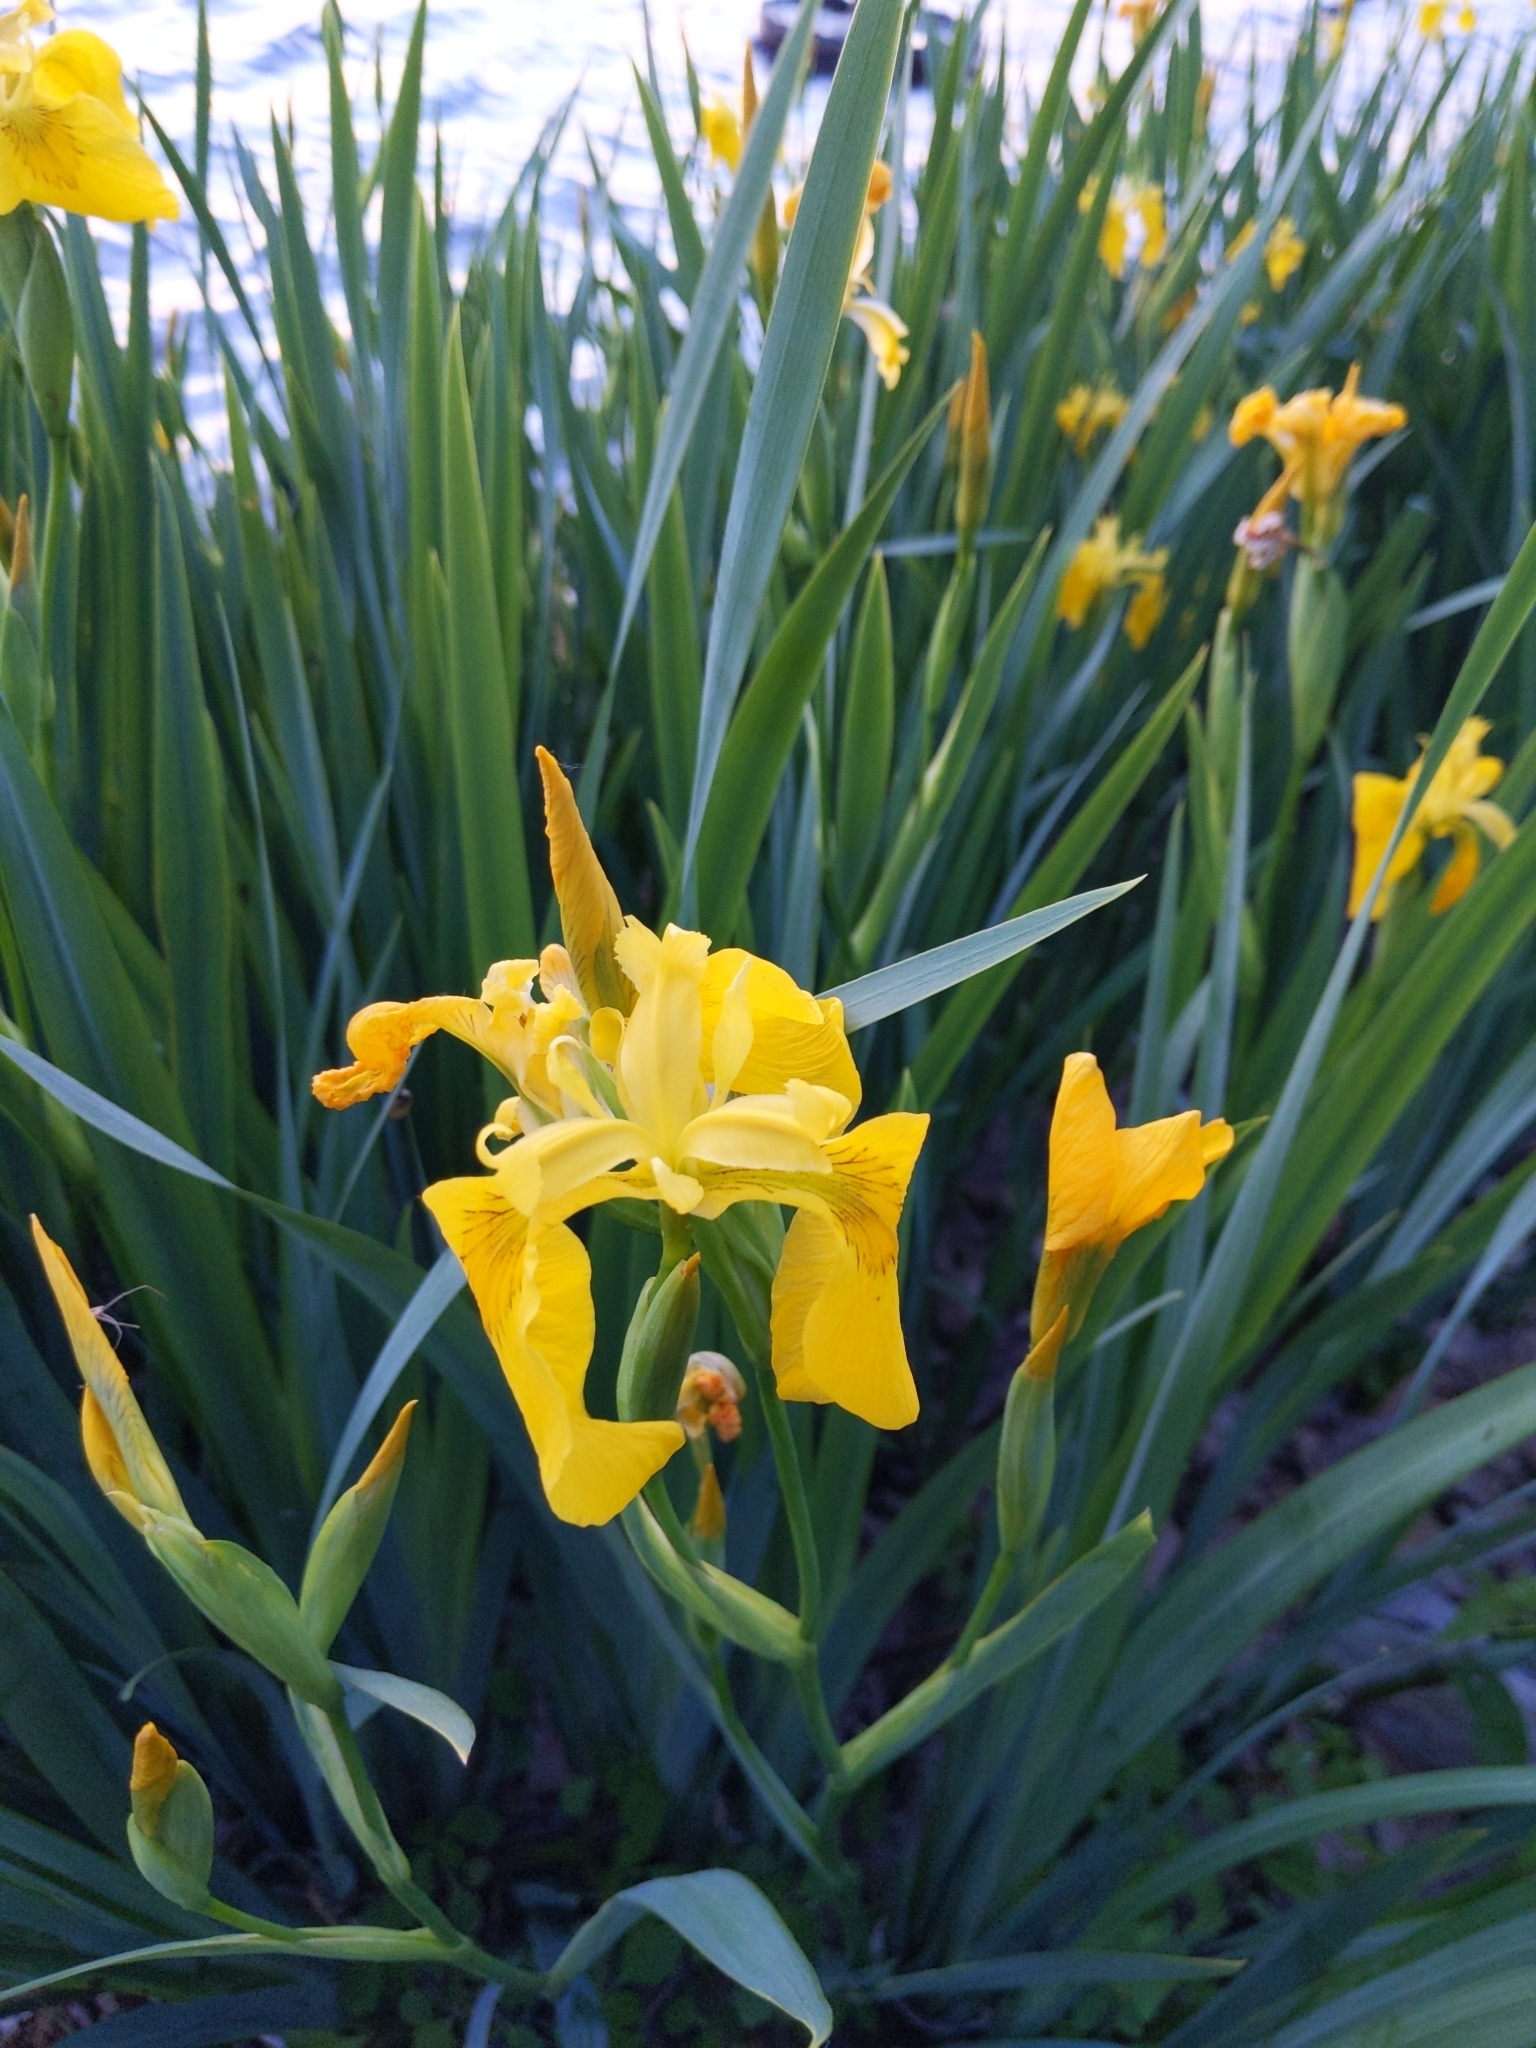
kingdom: Plantae
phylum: Tracheophyta
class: Liliopsida
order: Asparagales
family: Iridaceae
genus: Iris
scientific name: Iris pseudacorus
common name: Yellow flag
